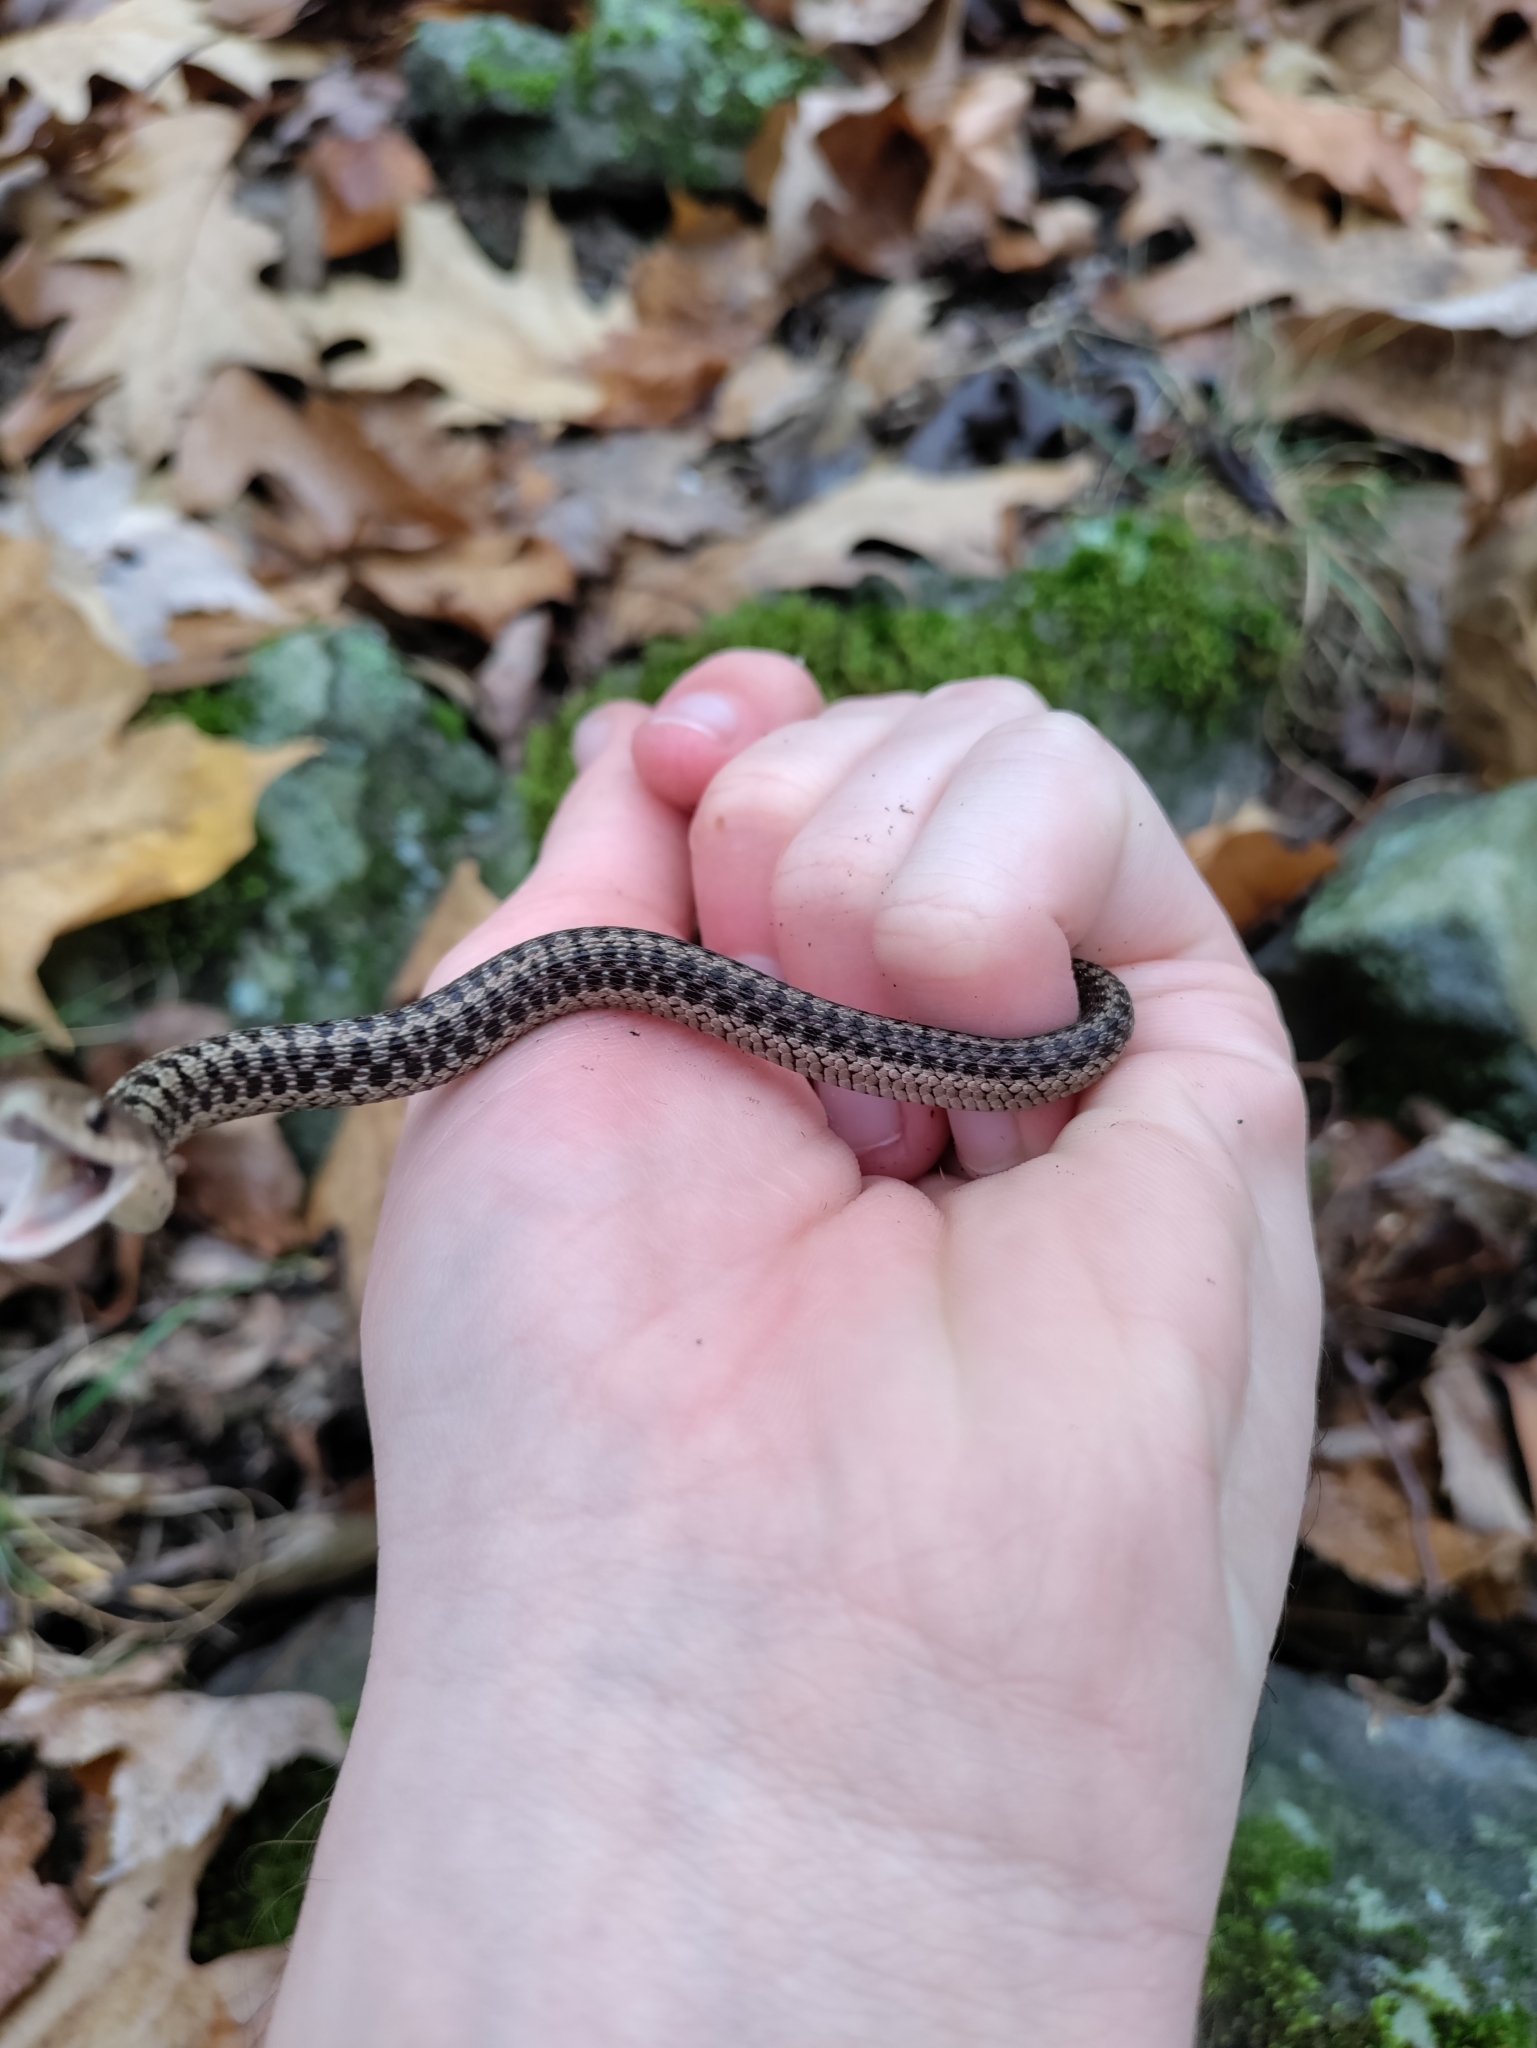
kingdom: Animalia
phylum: Chordata
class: Squamata
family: Colubridae
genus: Thamnophis
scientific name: Thamnophis sirtalis
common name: Common garter snake
